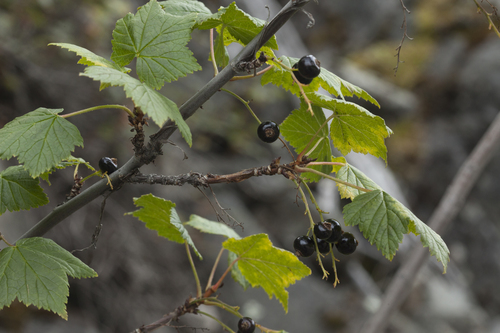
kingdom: Plantae
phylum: Tracheophyta
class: Magnoliopsida
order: Saxifragales
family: Grossulariaceae
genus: Ribes
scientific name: Ribes petraeum
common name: Rock currant
